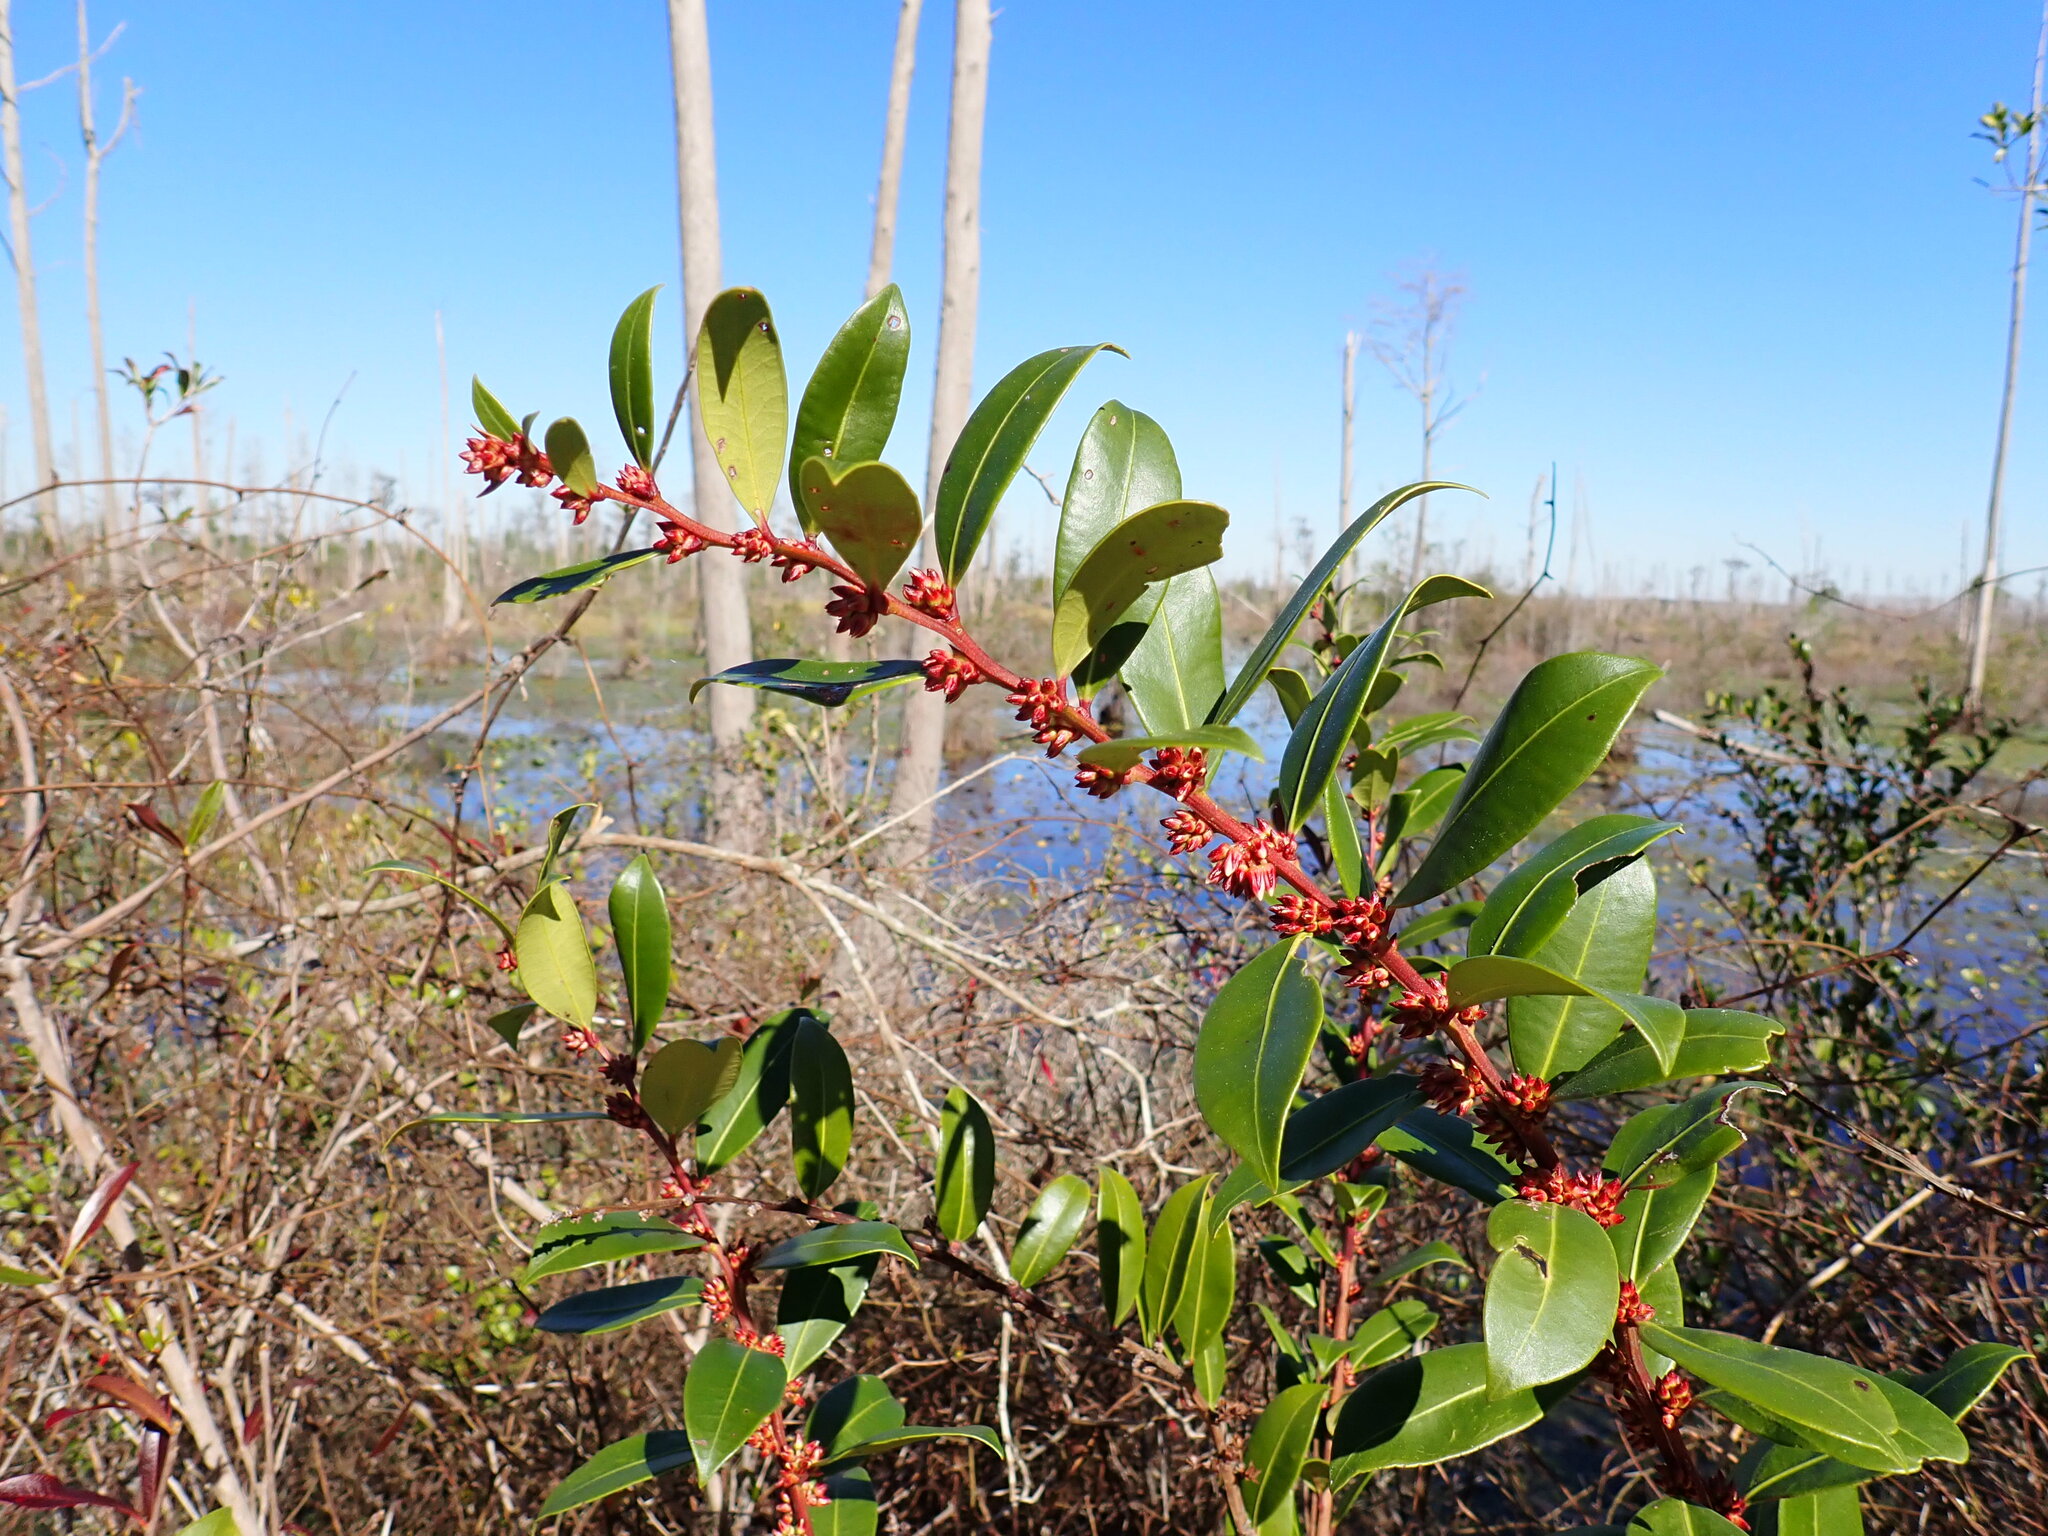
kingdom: Plantae
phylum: Tracheophyta
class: Magnoliopsida
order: Ericales
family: Ericaceae
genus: Lyonia
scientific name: Lyonia lucida
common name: Fetterbush
